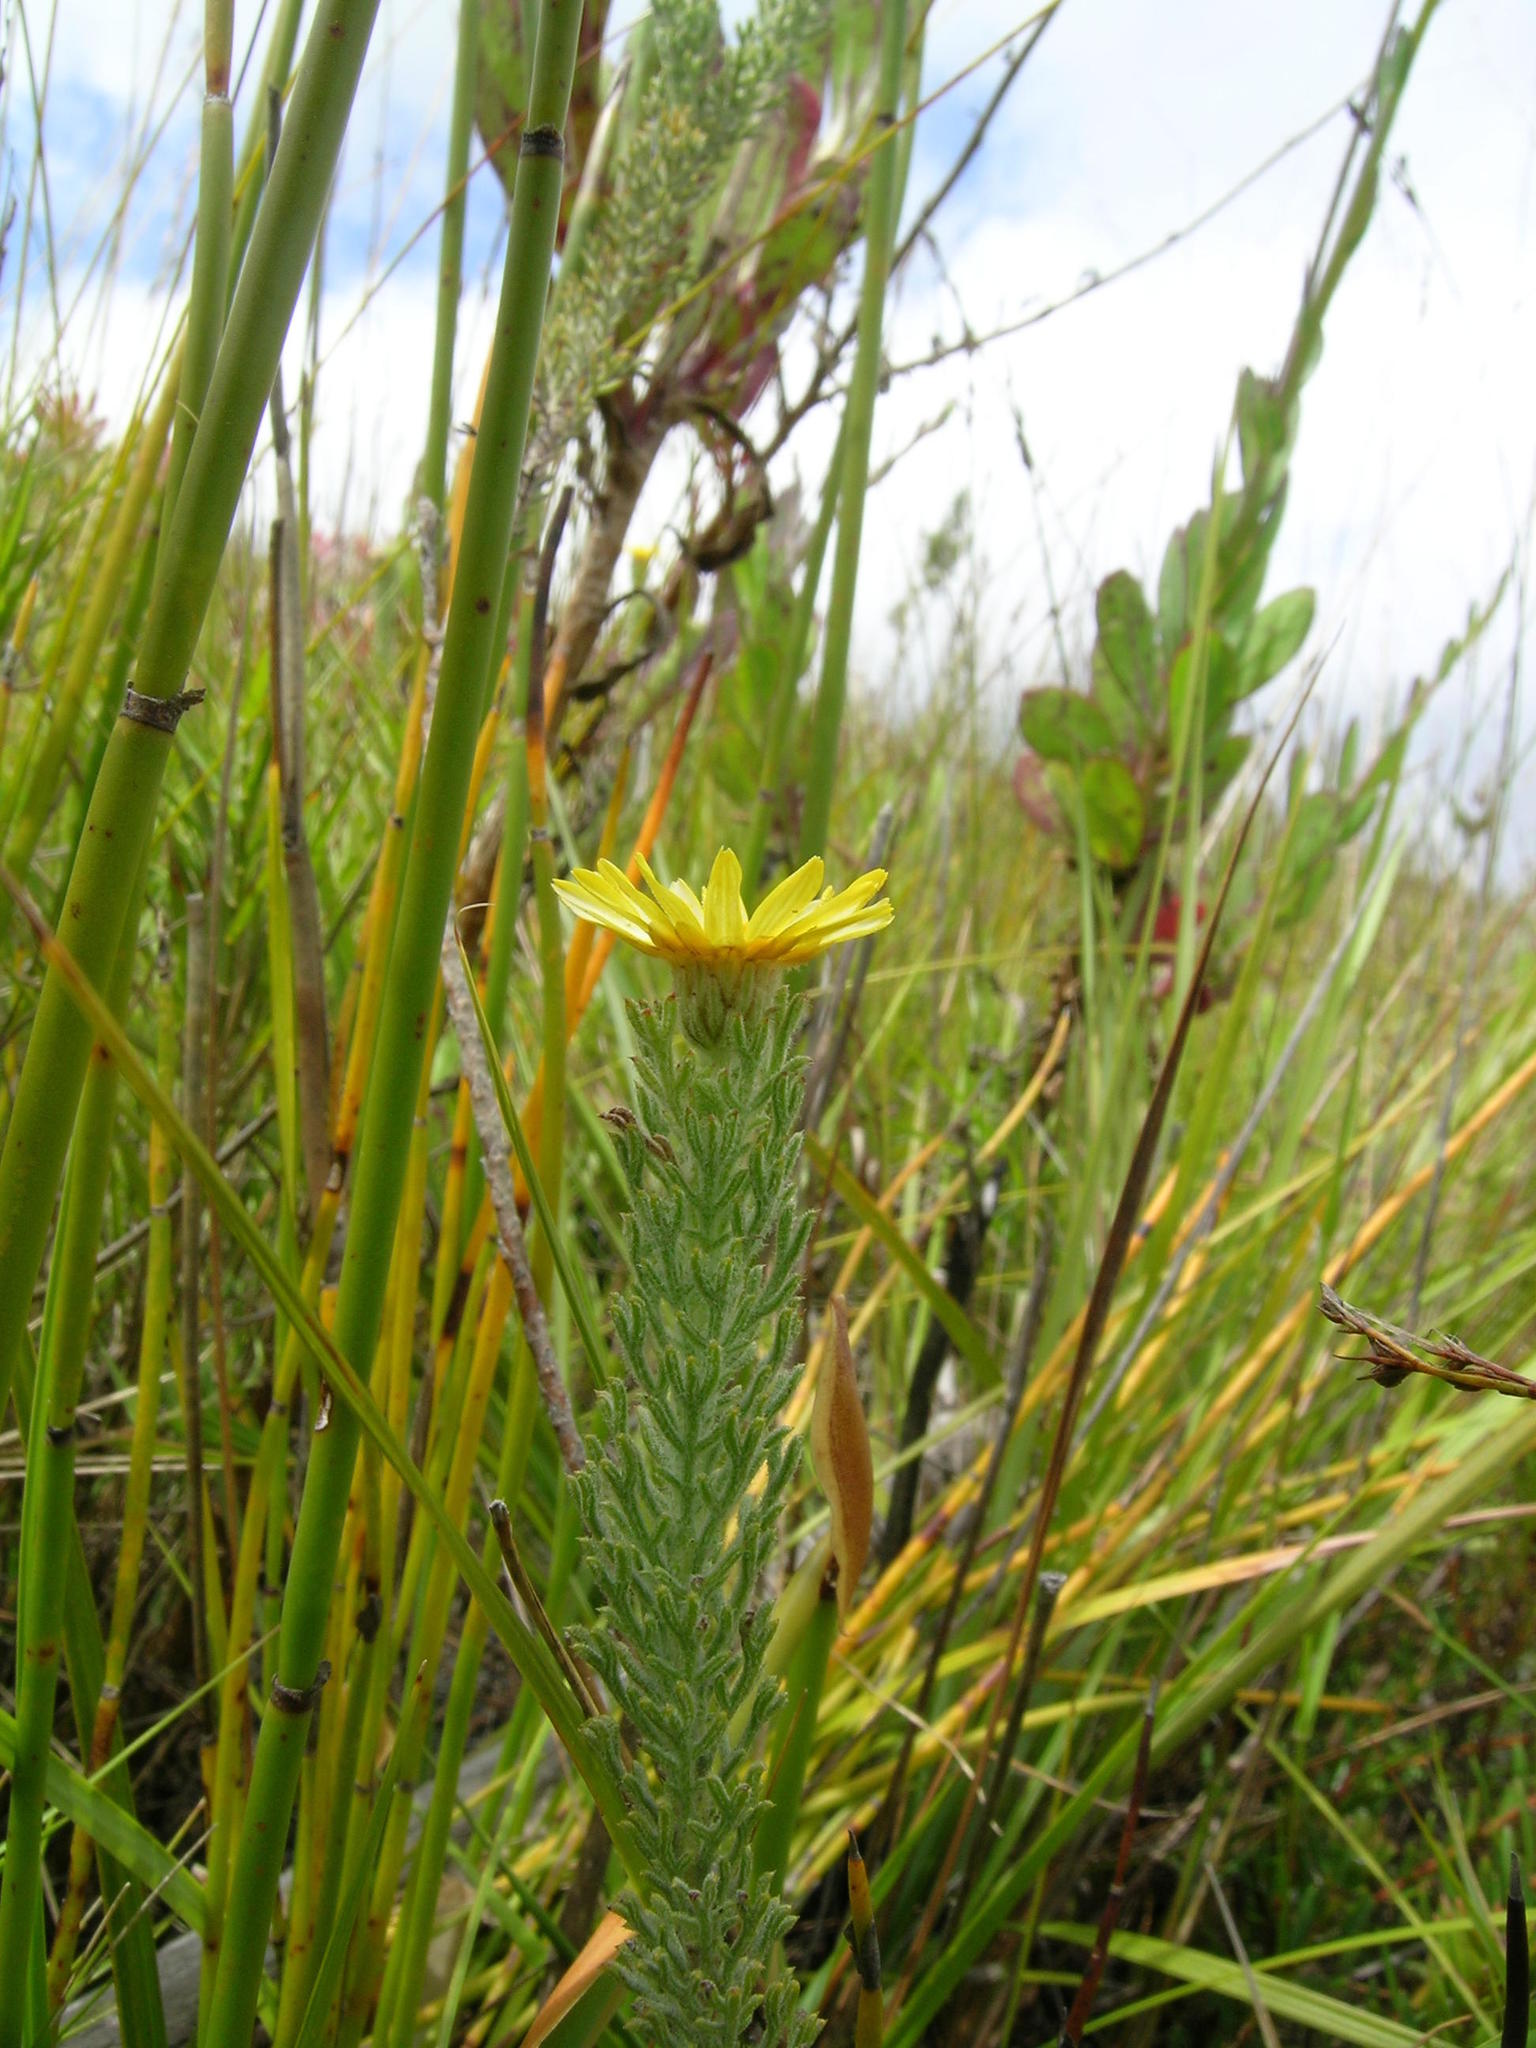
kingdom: Plantae
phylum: Tracheophyta
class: Magnoliopsida
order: Asterales
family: Asteraceae
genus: Ursinia
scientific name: Ursinia hispida
